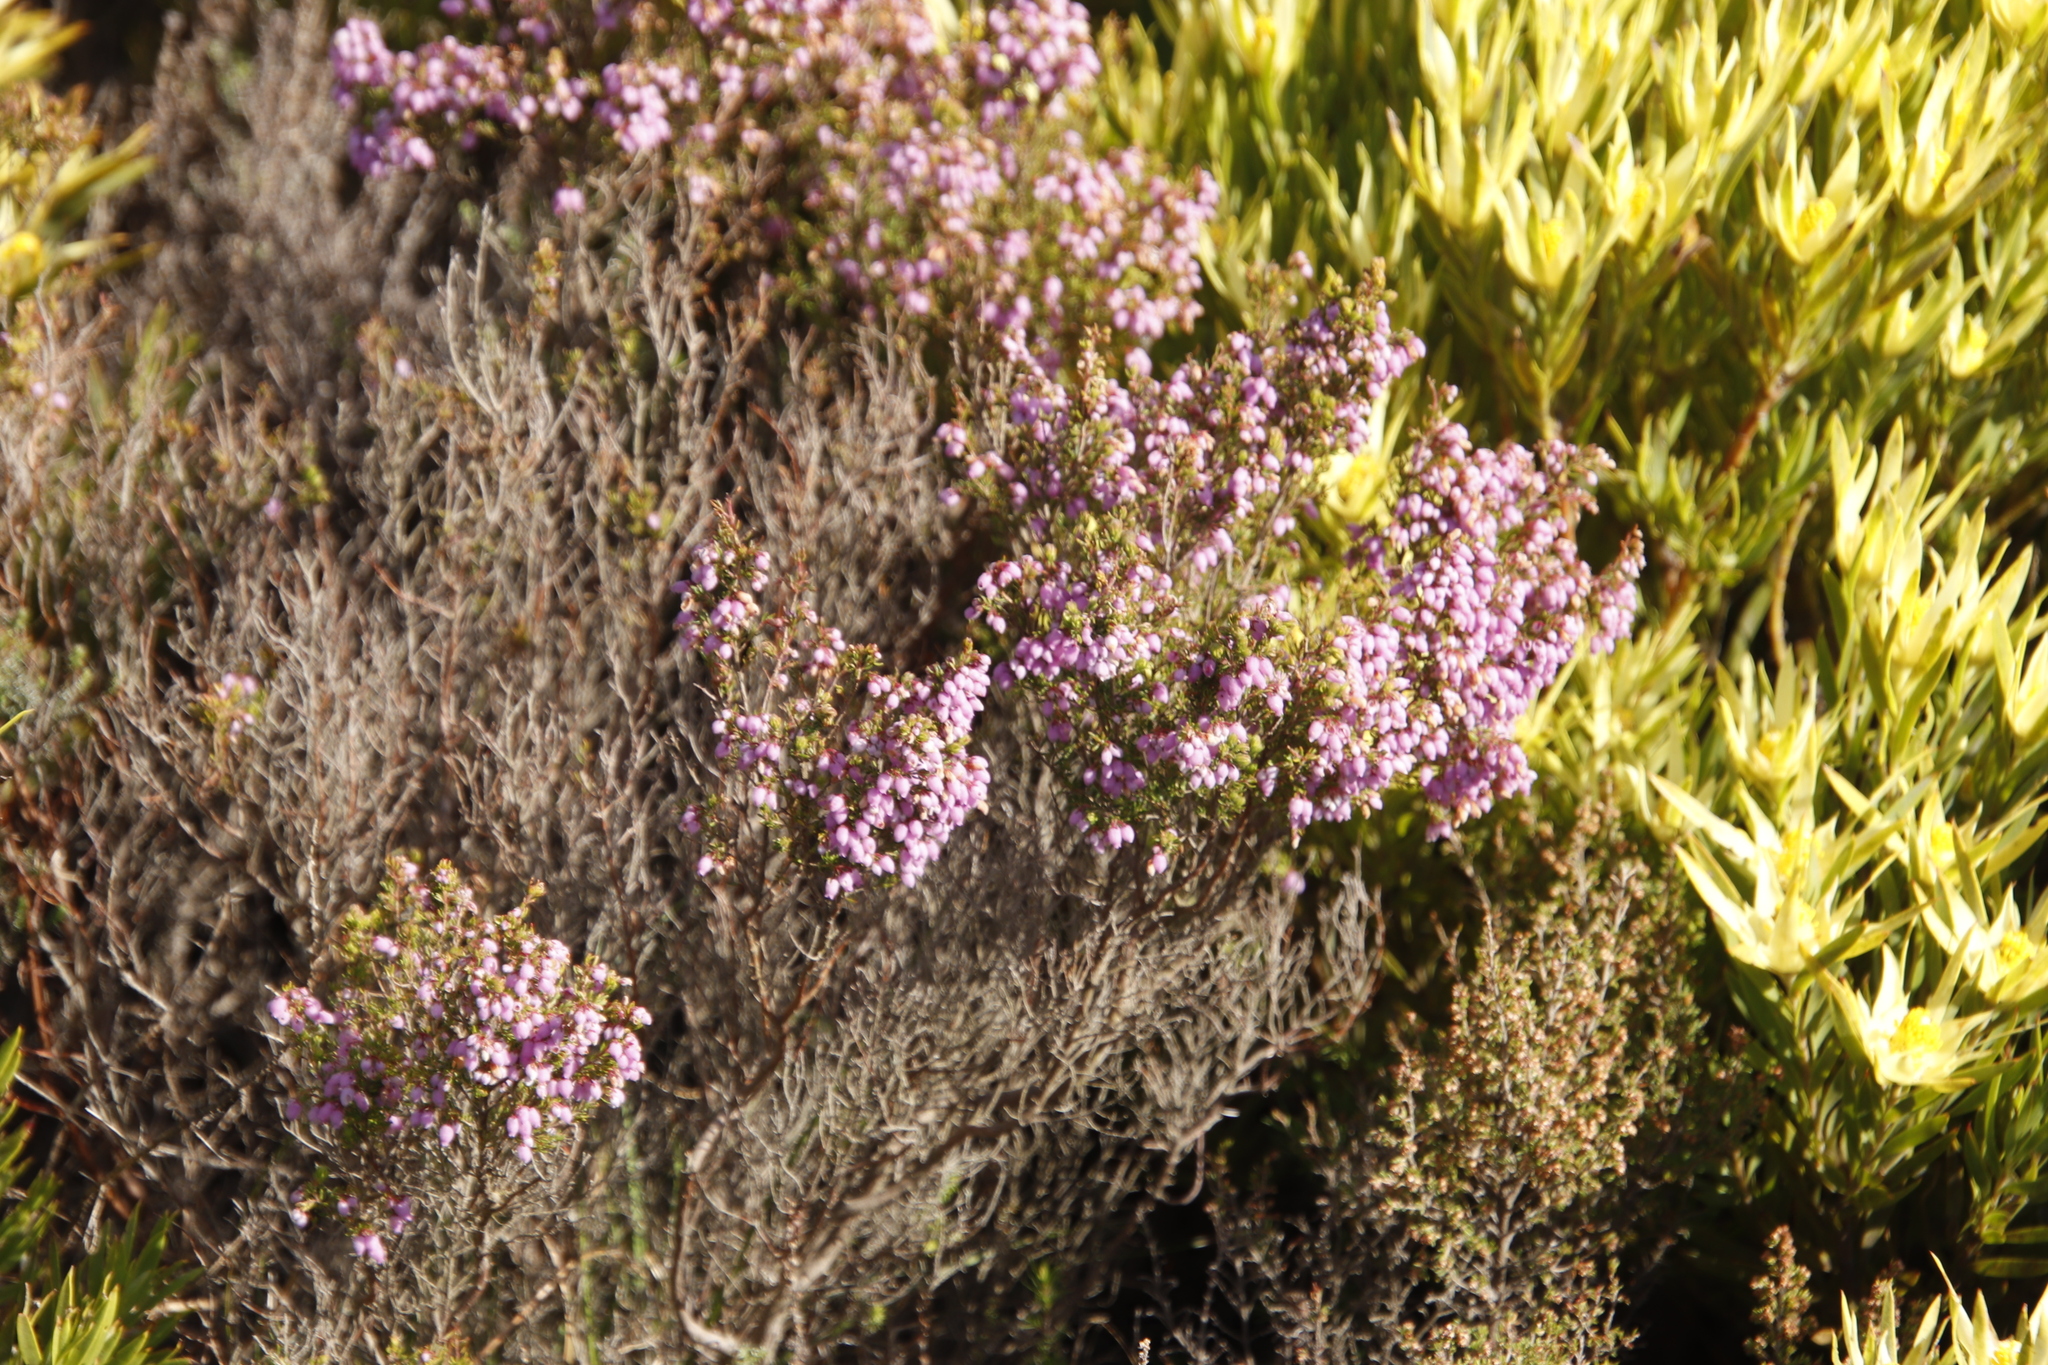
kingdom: Plantae
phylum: Tracheophyta
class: Magnoliopsida
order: Ericales
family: Ericaceae
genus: Erica
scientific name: Erica hirtiflora
